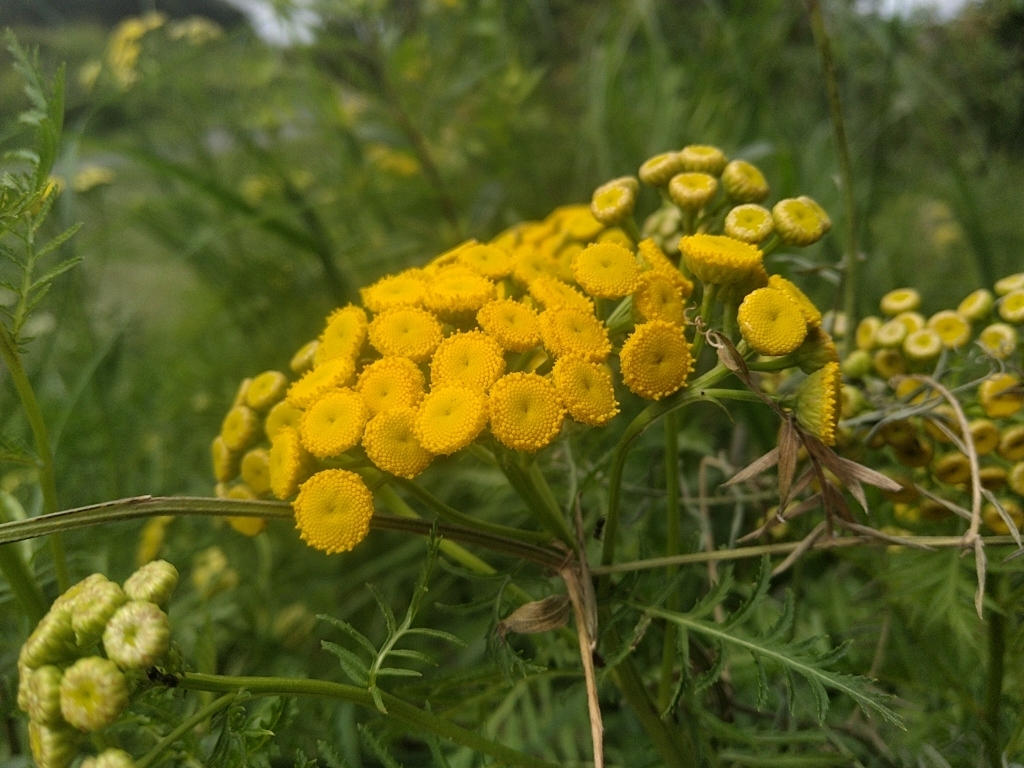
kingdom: Plantae
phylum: Tracheophyta
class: Magnoliopsida
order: Asterales
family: Asteraceae
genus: Tanacetum
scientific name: Tanacetum vulgare
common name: Common tansy
